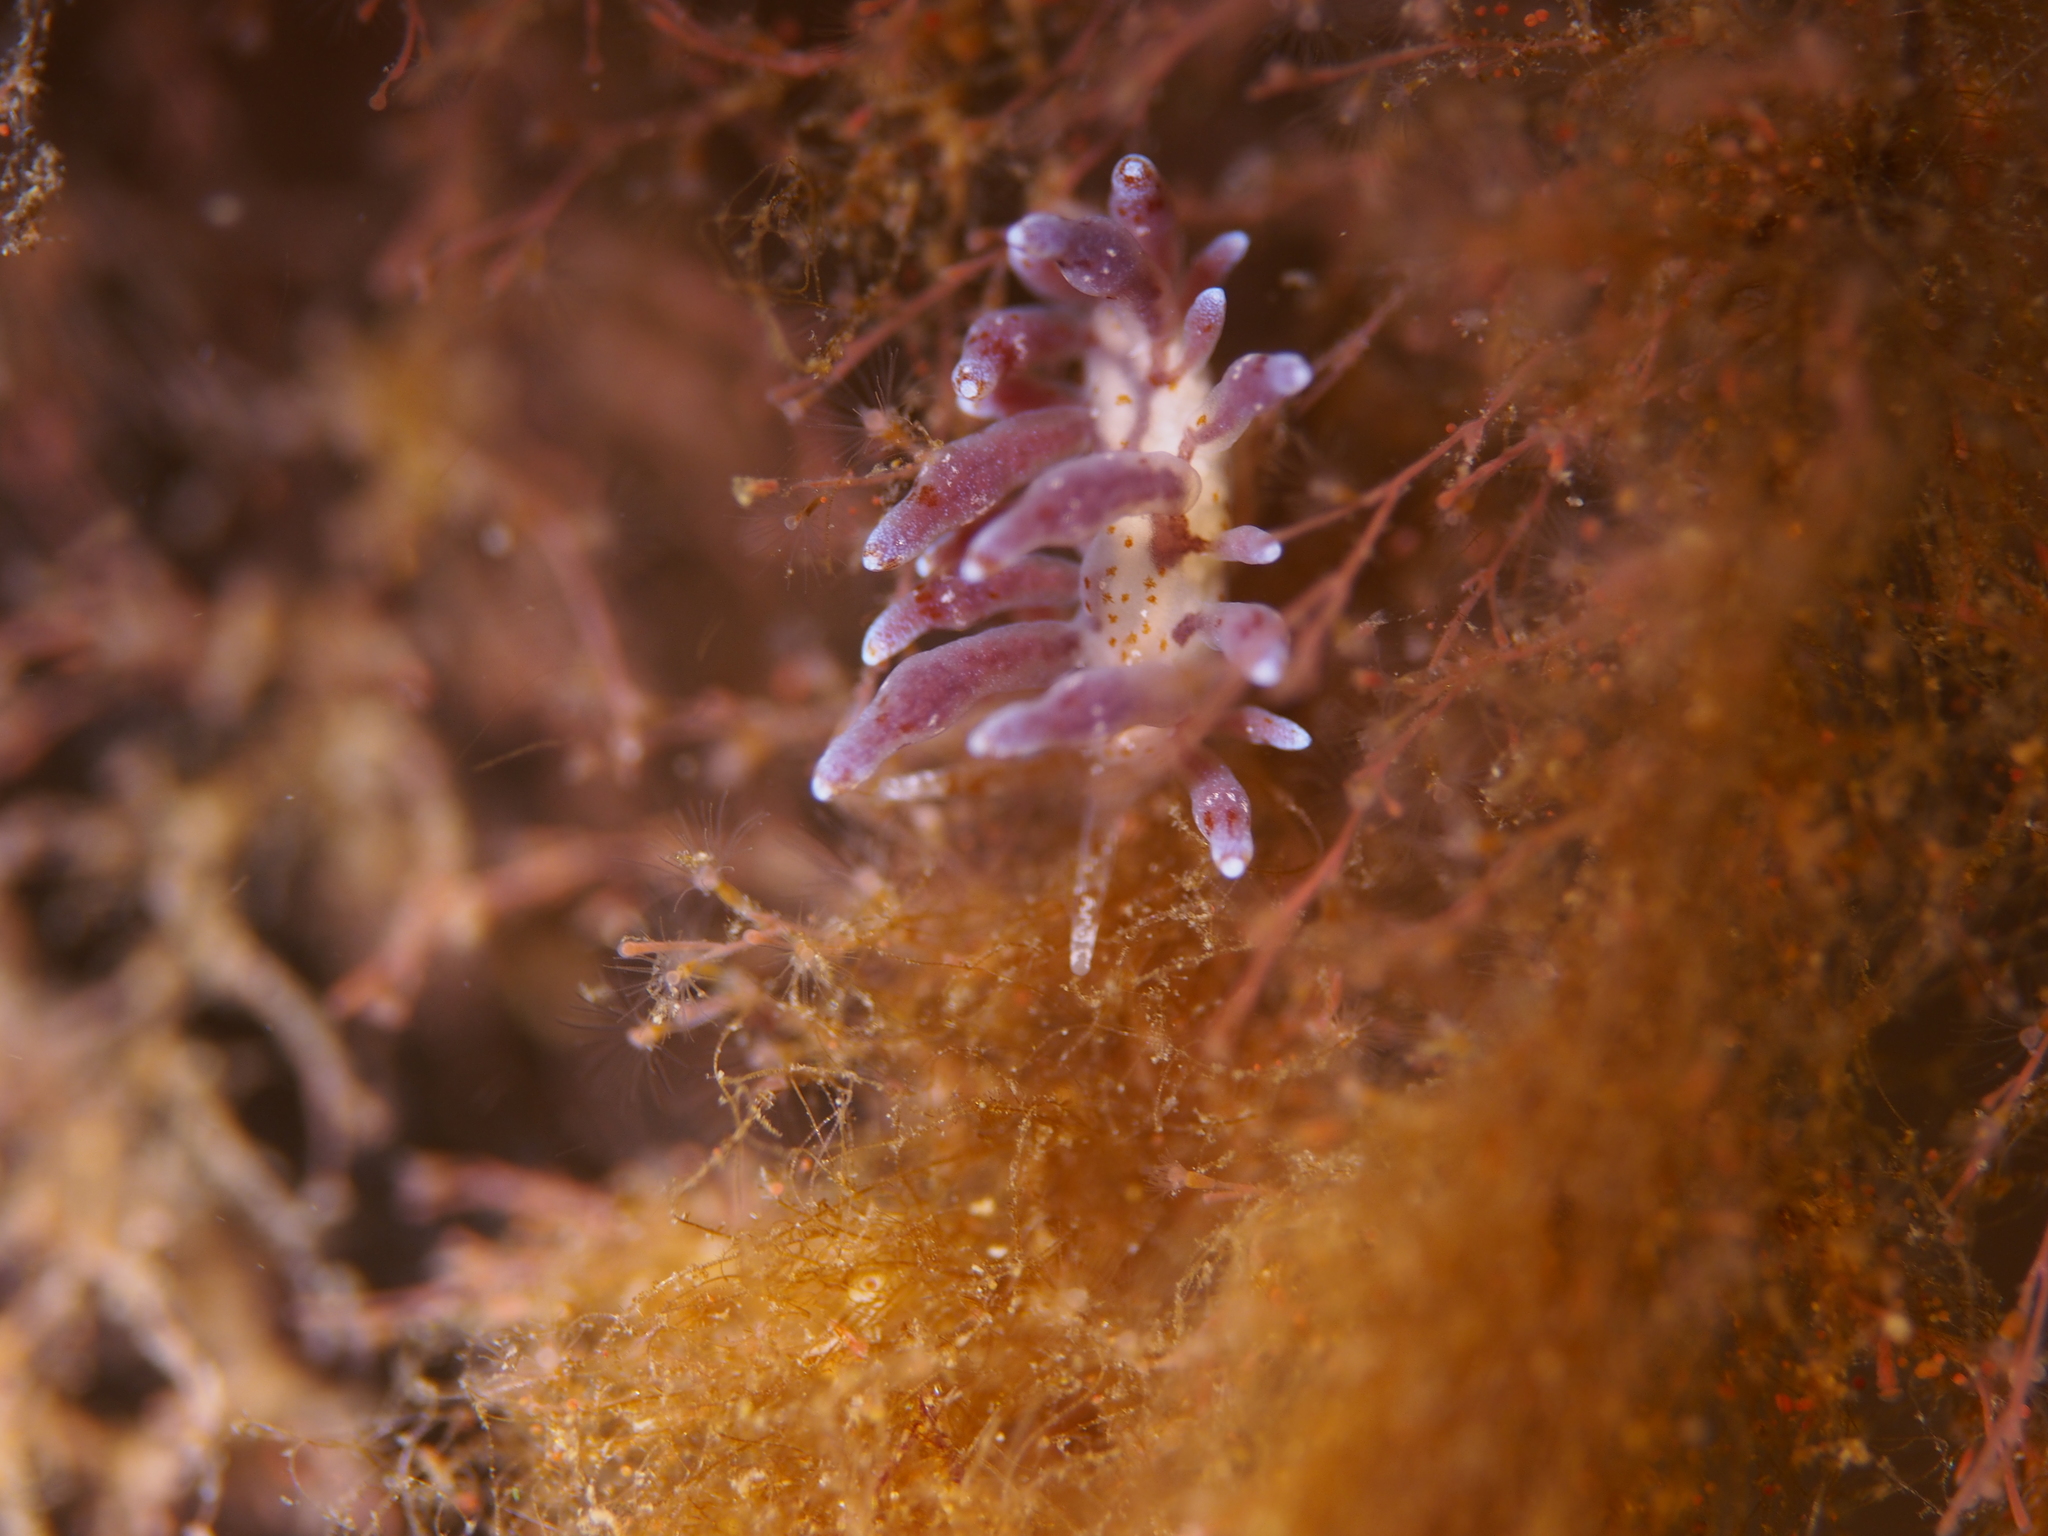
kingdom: Animalia
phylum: Mollusca
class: Gastropoda
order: Nudibranchia
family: Eubranchidae
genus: Eubranchus
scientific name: Eubranchus rupium
